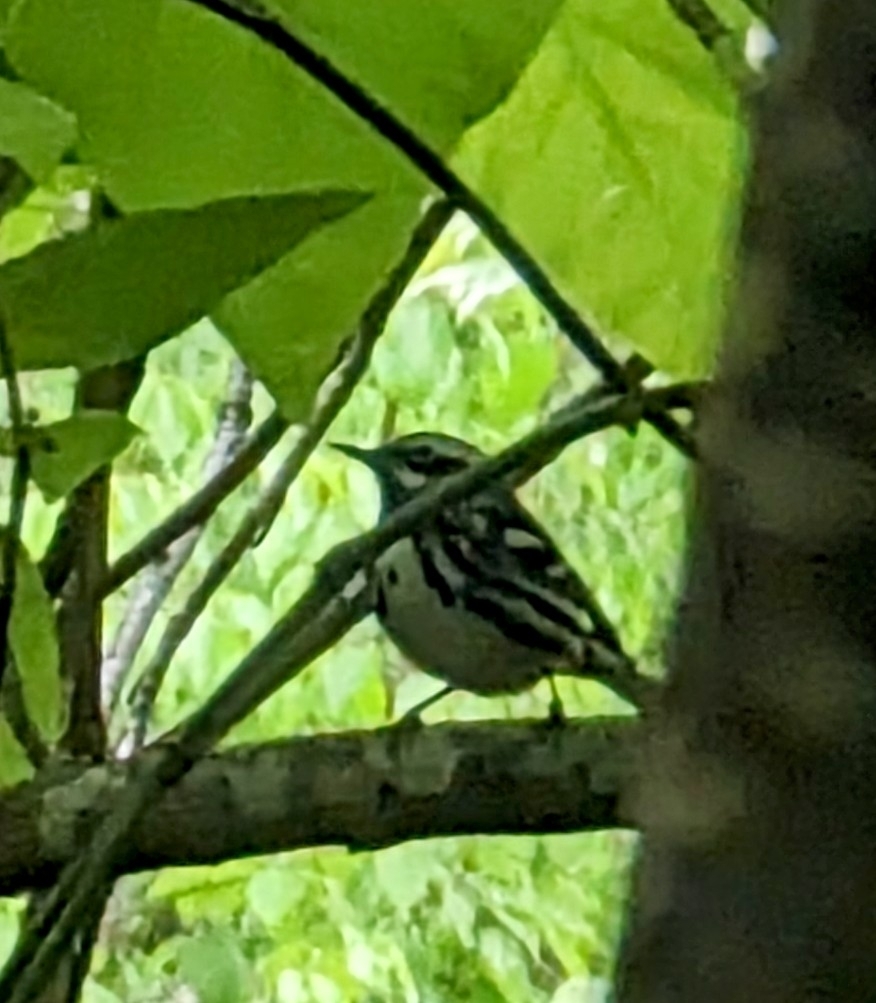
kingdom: Animalia
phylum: Chordata
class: Aves
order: Passeriformes
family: Parulidae
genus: Mniotilta
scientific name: Mniotilta varia
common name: Black-and-white warbler
